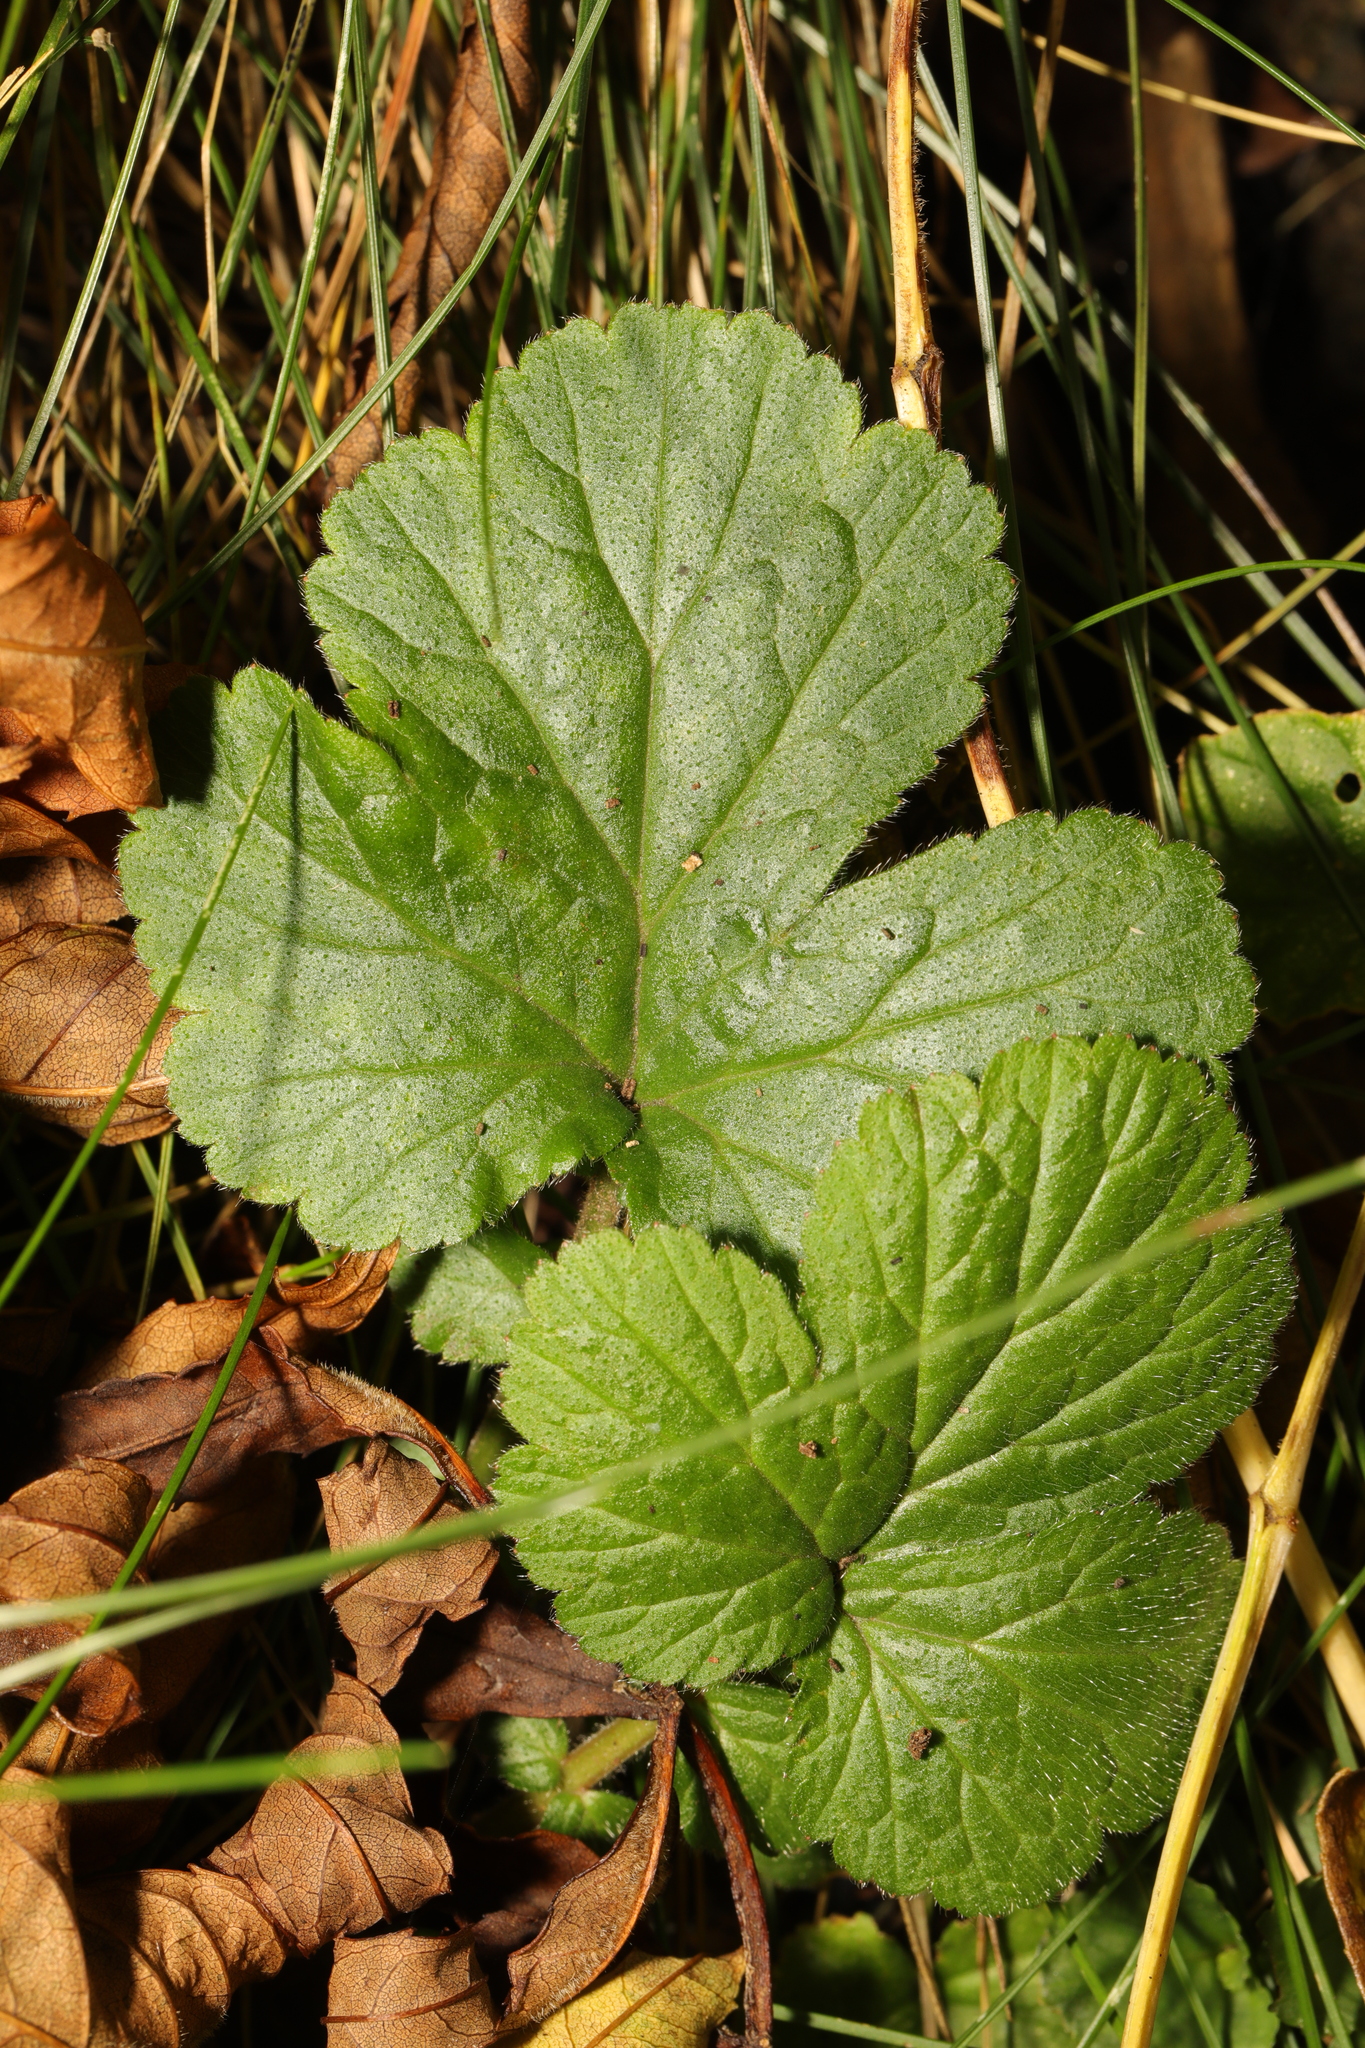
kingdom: Plantae
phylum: Tracheophyta
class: Magnoliopsida
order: Rosales
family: Rosaceae
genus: Geum
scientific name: Geum urbanum
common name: Wood avens
